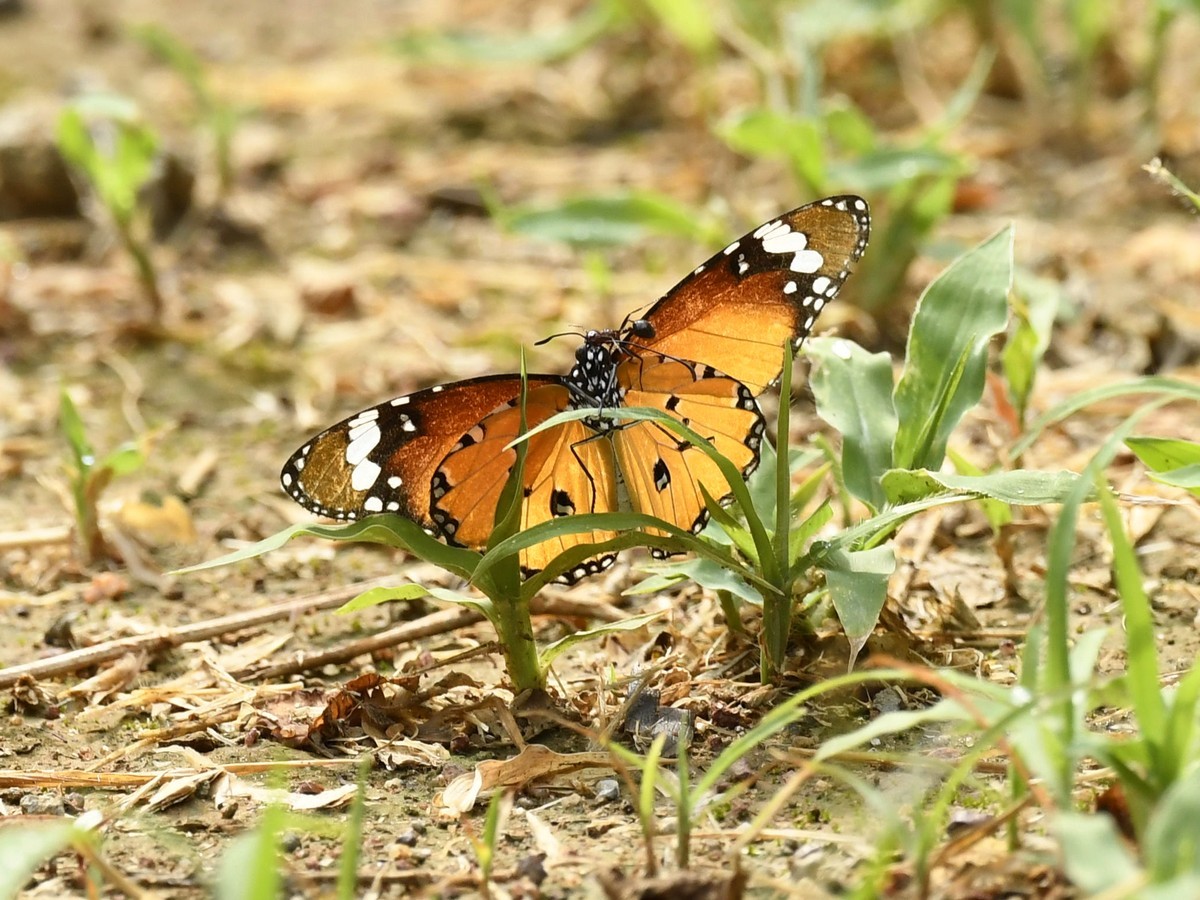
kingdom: Animalia
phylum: Arthropoda
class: Insecta
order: Lepidoptera
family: Nymphalidae
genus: Danaus
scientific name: Danaus chrysippus
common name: Plain tiger
